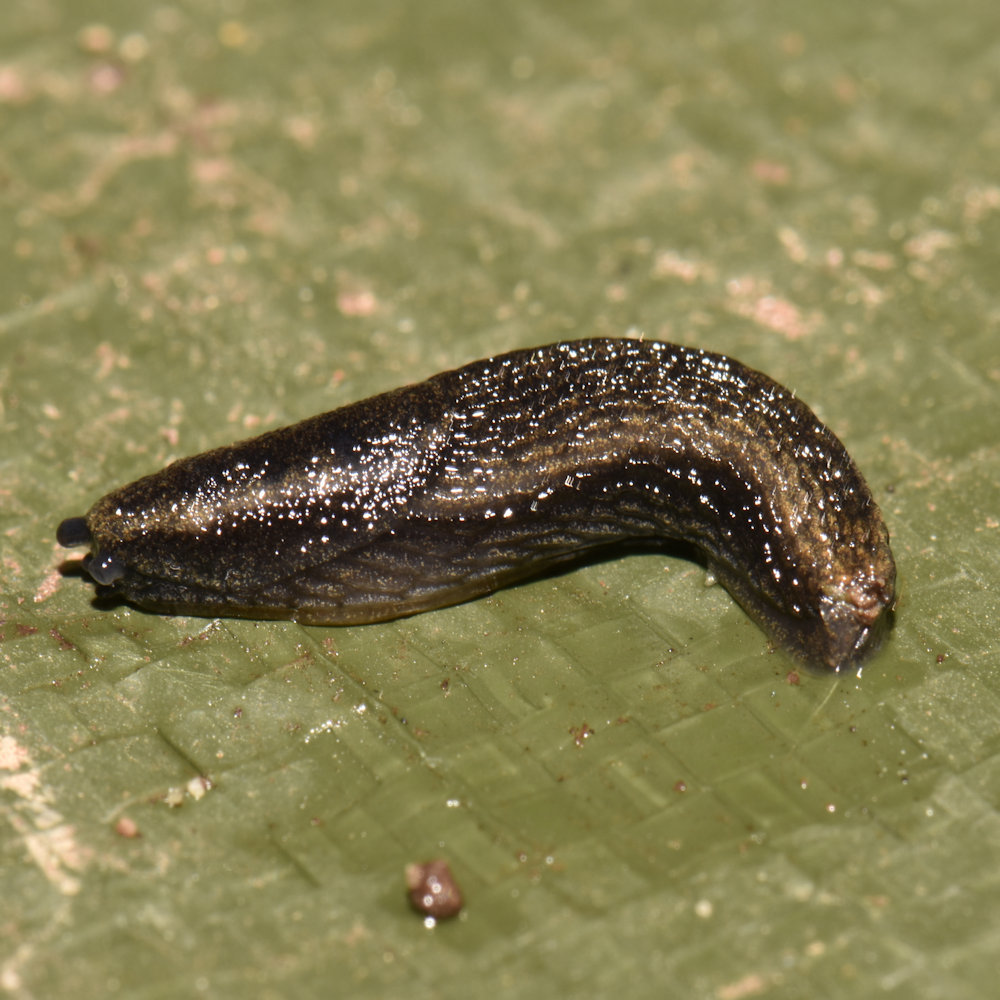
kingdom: Animalia
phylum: Mollusca
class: Gastropoda
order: Stylommatophora
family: Arionidae
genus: Arion
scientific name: Arion hortensis
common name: Garden arion
